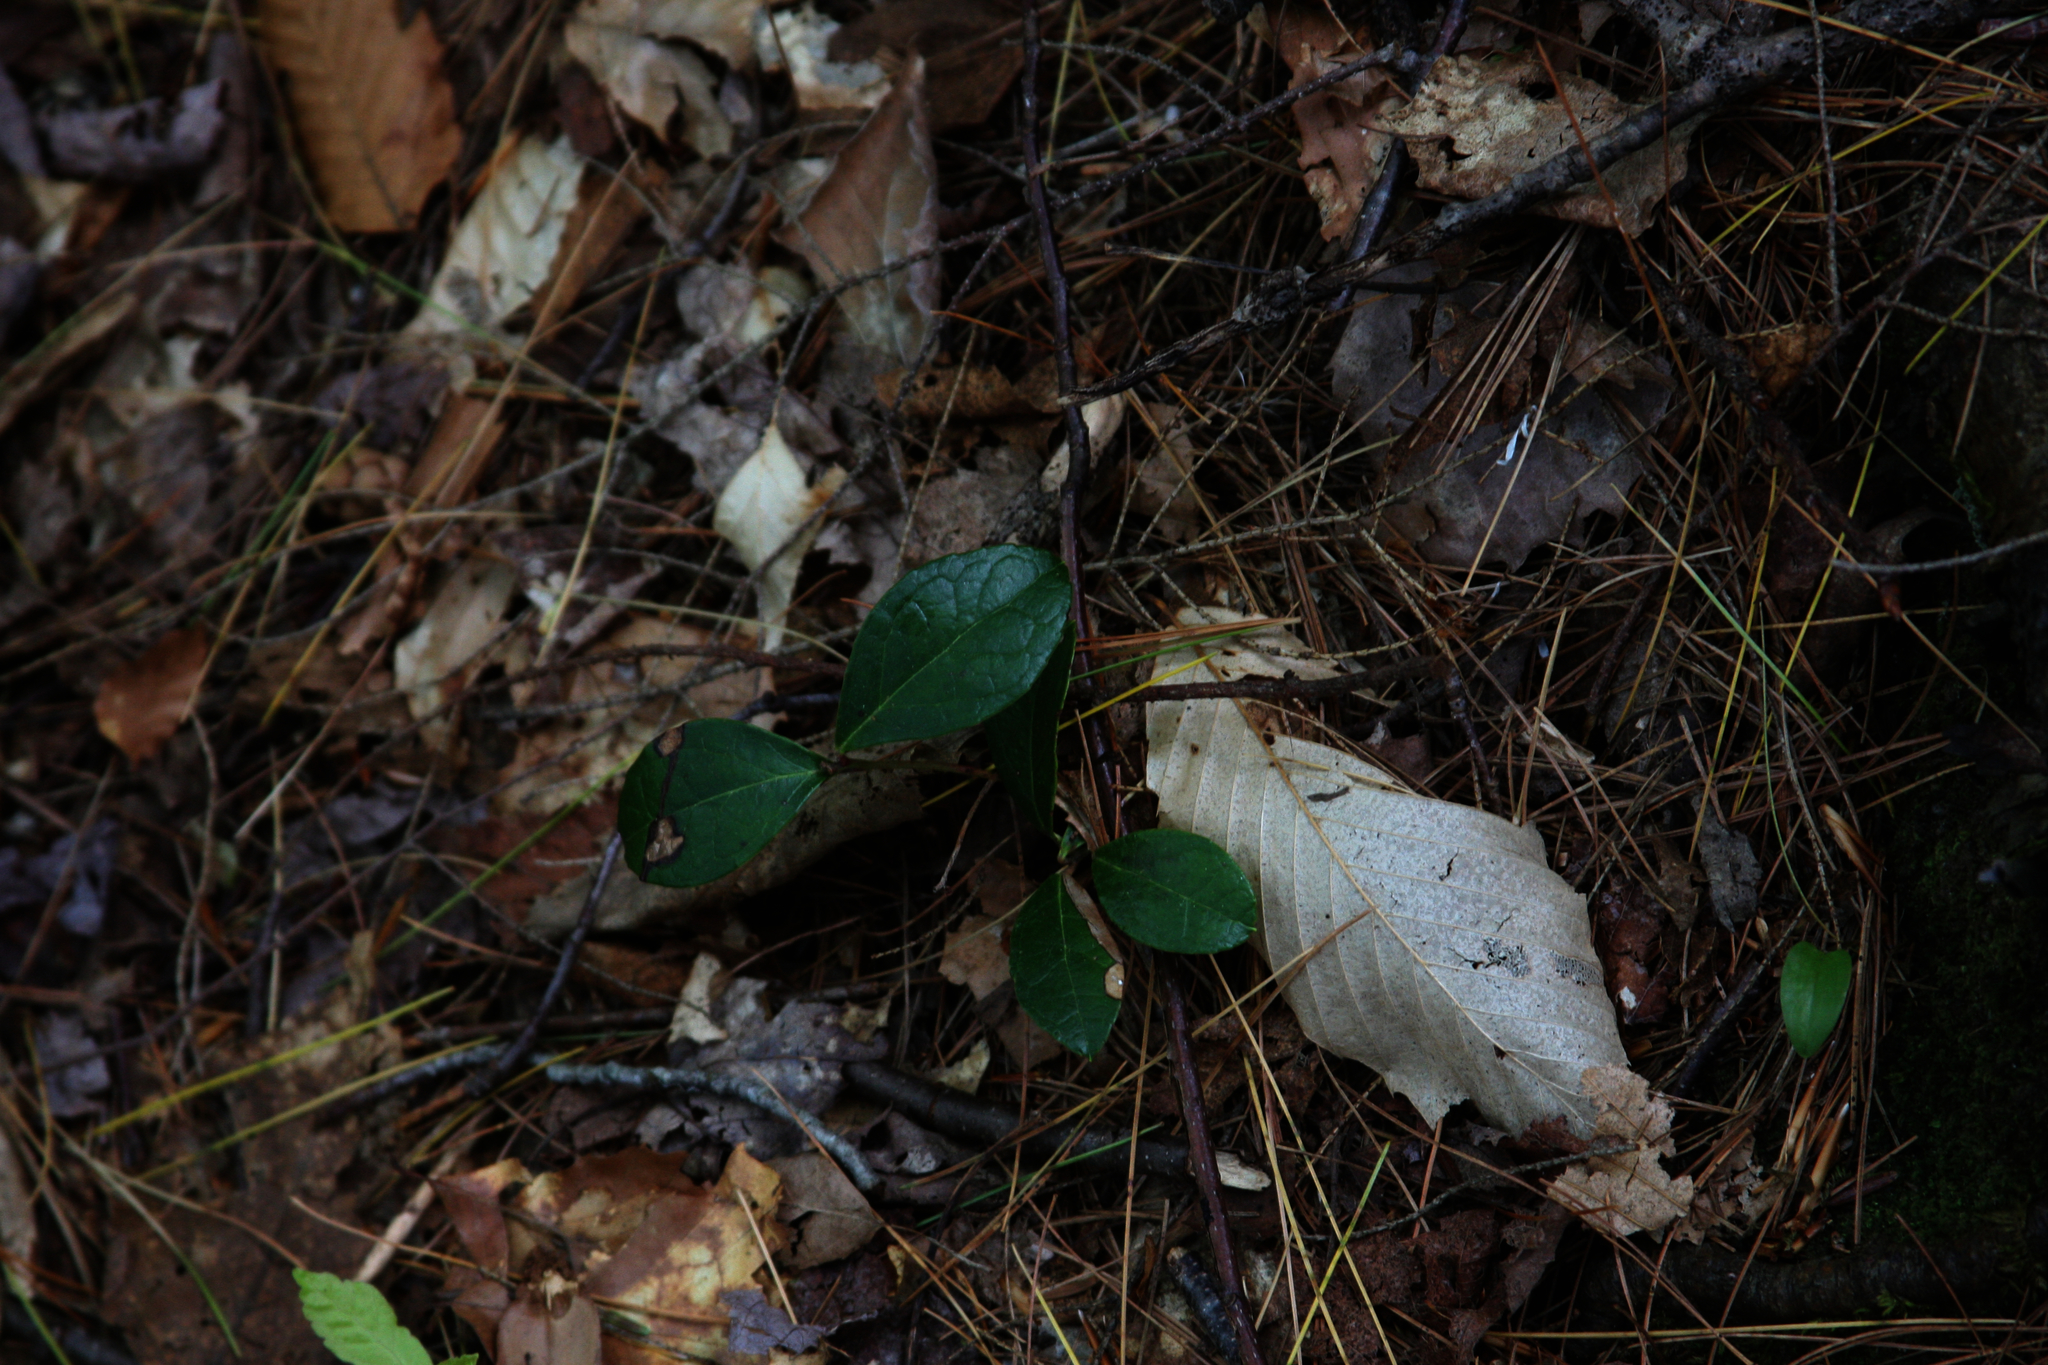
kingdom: Plantae
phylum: Tracheophyta
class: Magnoliopsida
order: Ericales
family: Ericaceae
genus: Gaultheria
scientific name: Gaultheria procumbens
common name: Checkerberry
